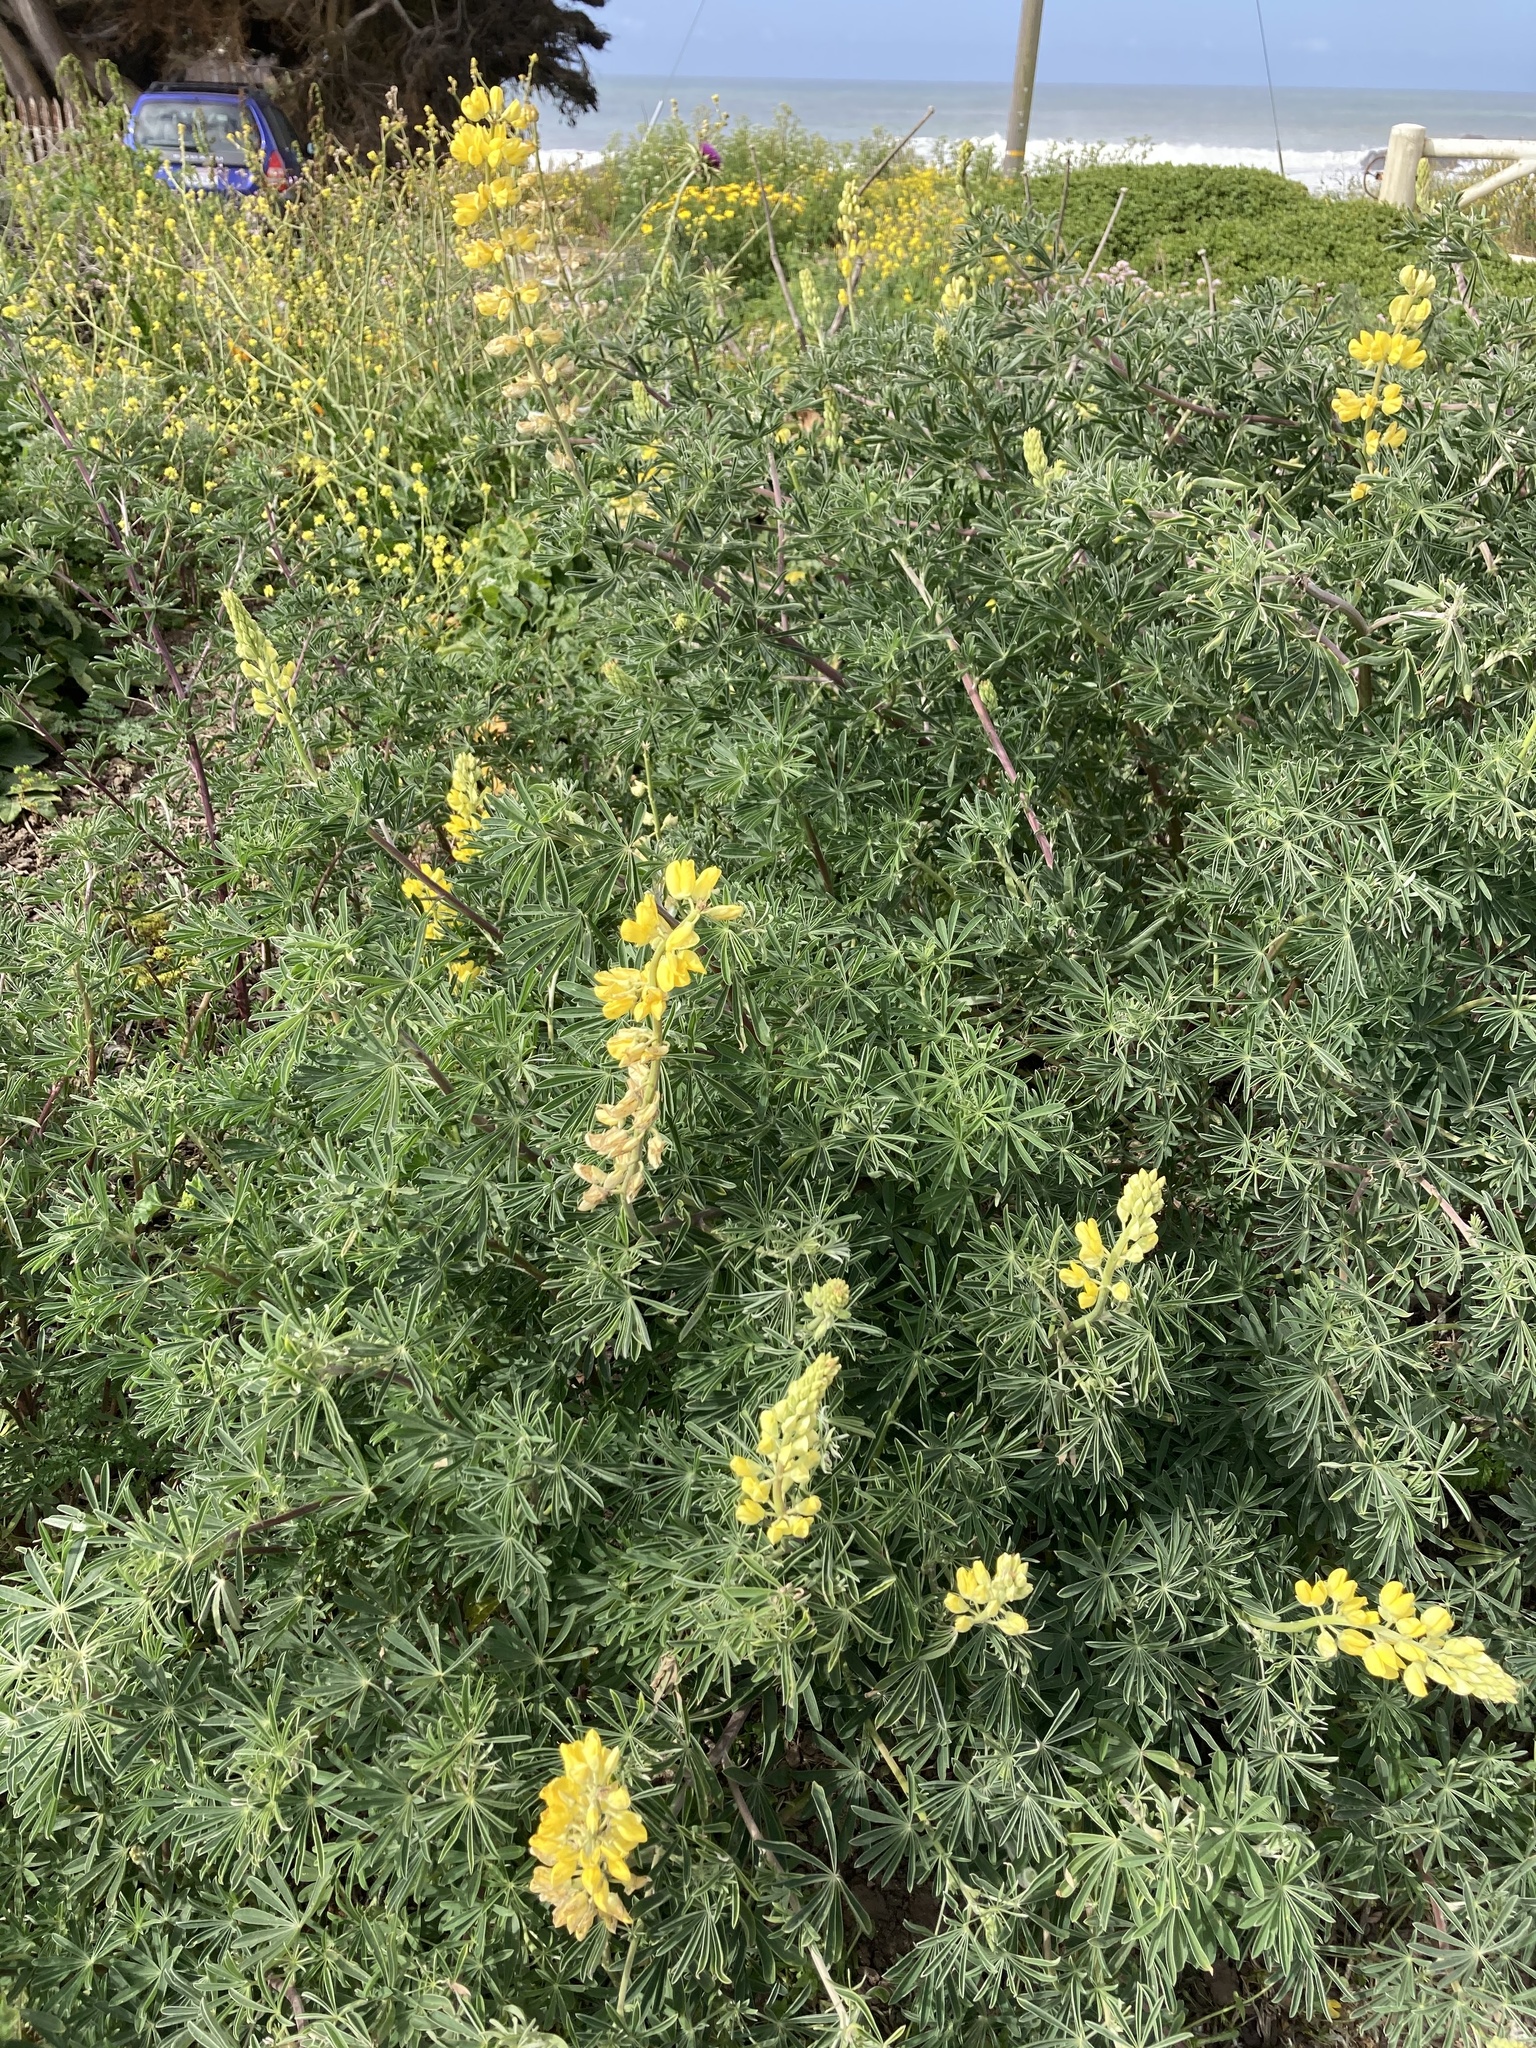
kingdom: Plantae
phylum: Tracheophyta
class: Magnoliopsida
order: Fabales
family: Fabaceae
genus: Lupinus
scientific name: Lupinus arboreus
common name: Yellow bush lupine
